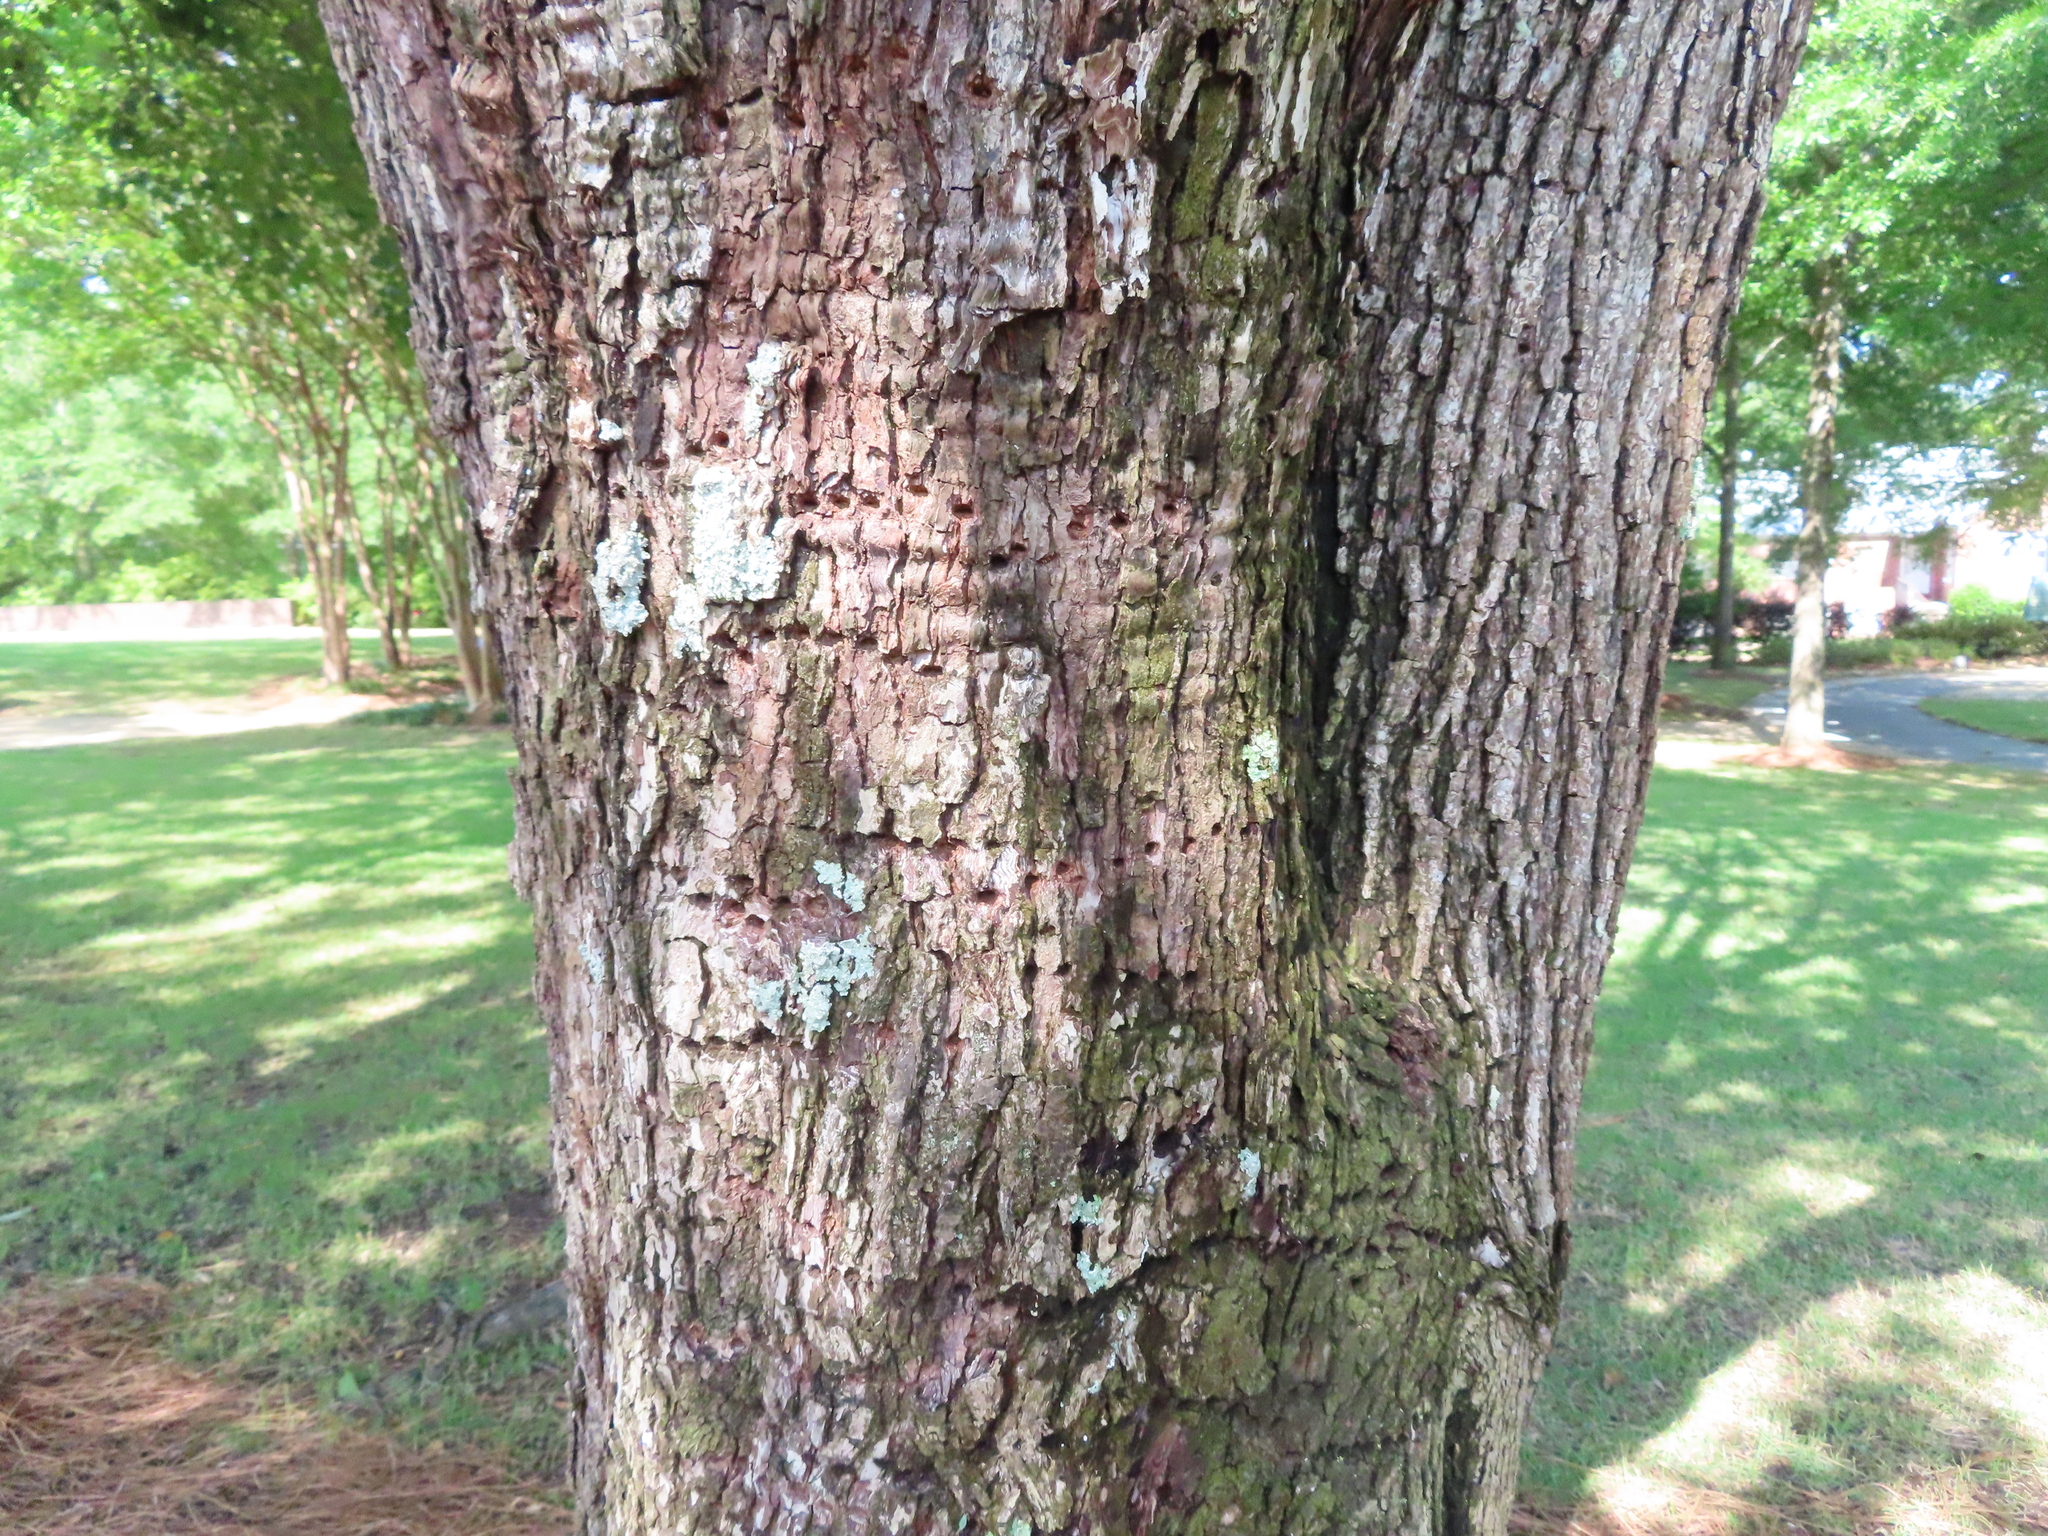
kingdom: Animalia
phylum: Chordata
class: Aves
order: Piciformes
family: Picidae
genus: Sphyrapicus
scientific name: Sphyrapicus varius
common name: Yellow-bellied sapsucker
